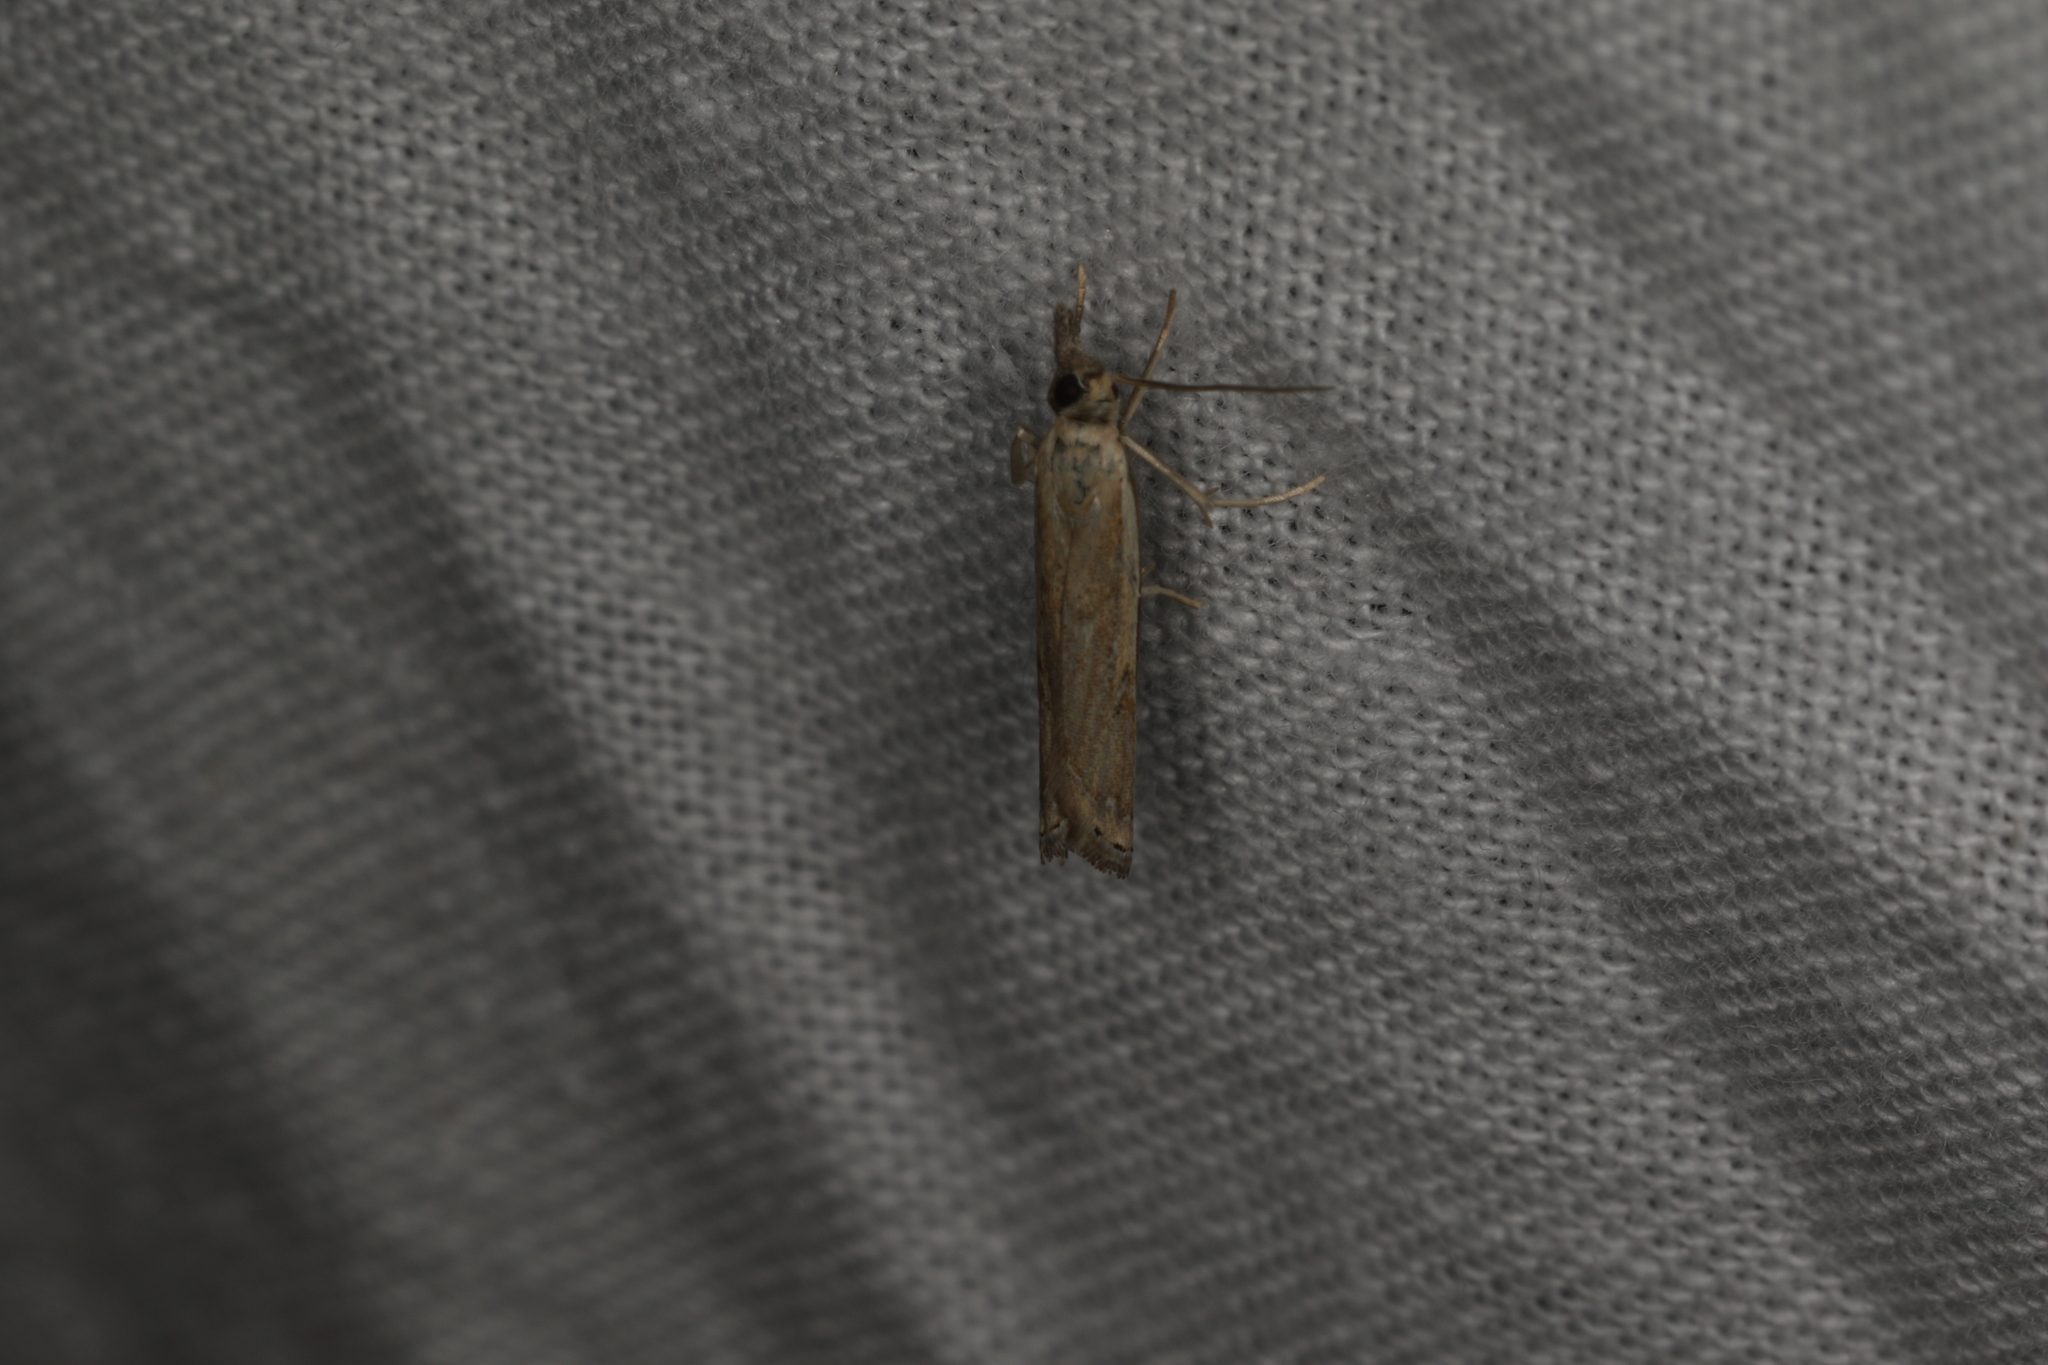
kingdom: Animalia
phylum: Arthropoda
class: Insecta
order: Lepidoptera
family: Crambidae
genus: Ptochostola
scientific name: Ptochostola microphaeellus
